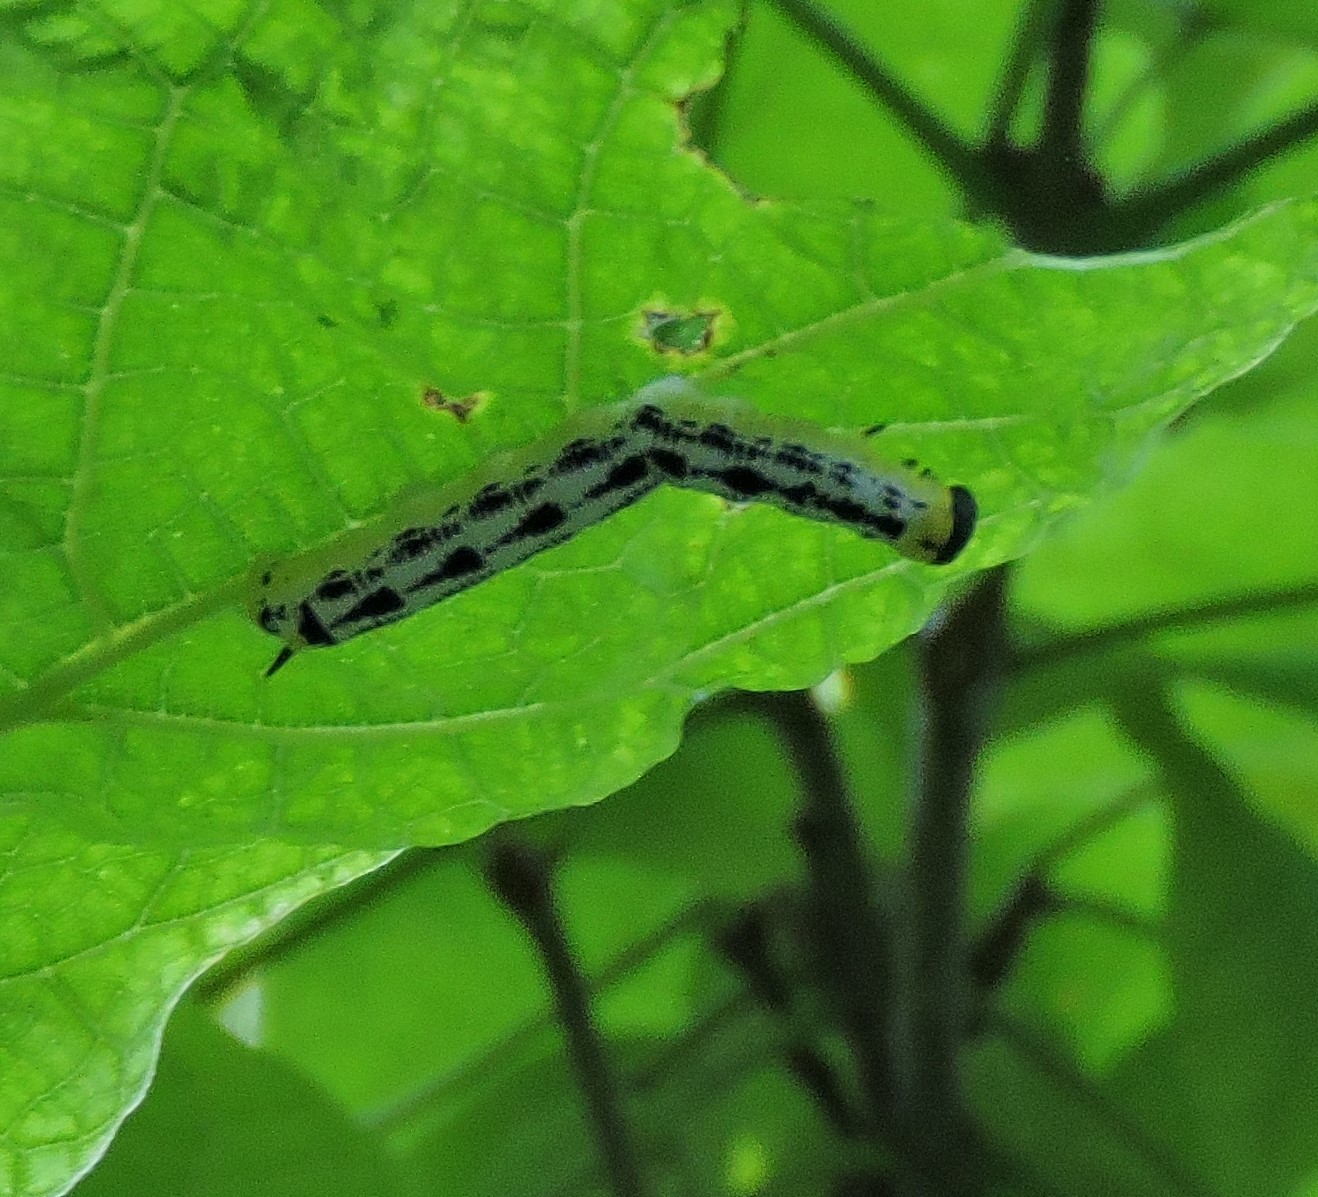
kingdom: Animalia
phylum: Arthropoda
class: Insecta
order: Lepidoptera
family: Sphingidae
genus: Ceratomia
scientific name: Ceratomia catalpae
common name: Catalpa hornworm
